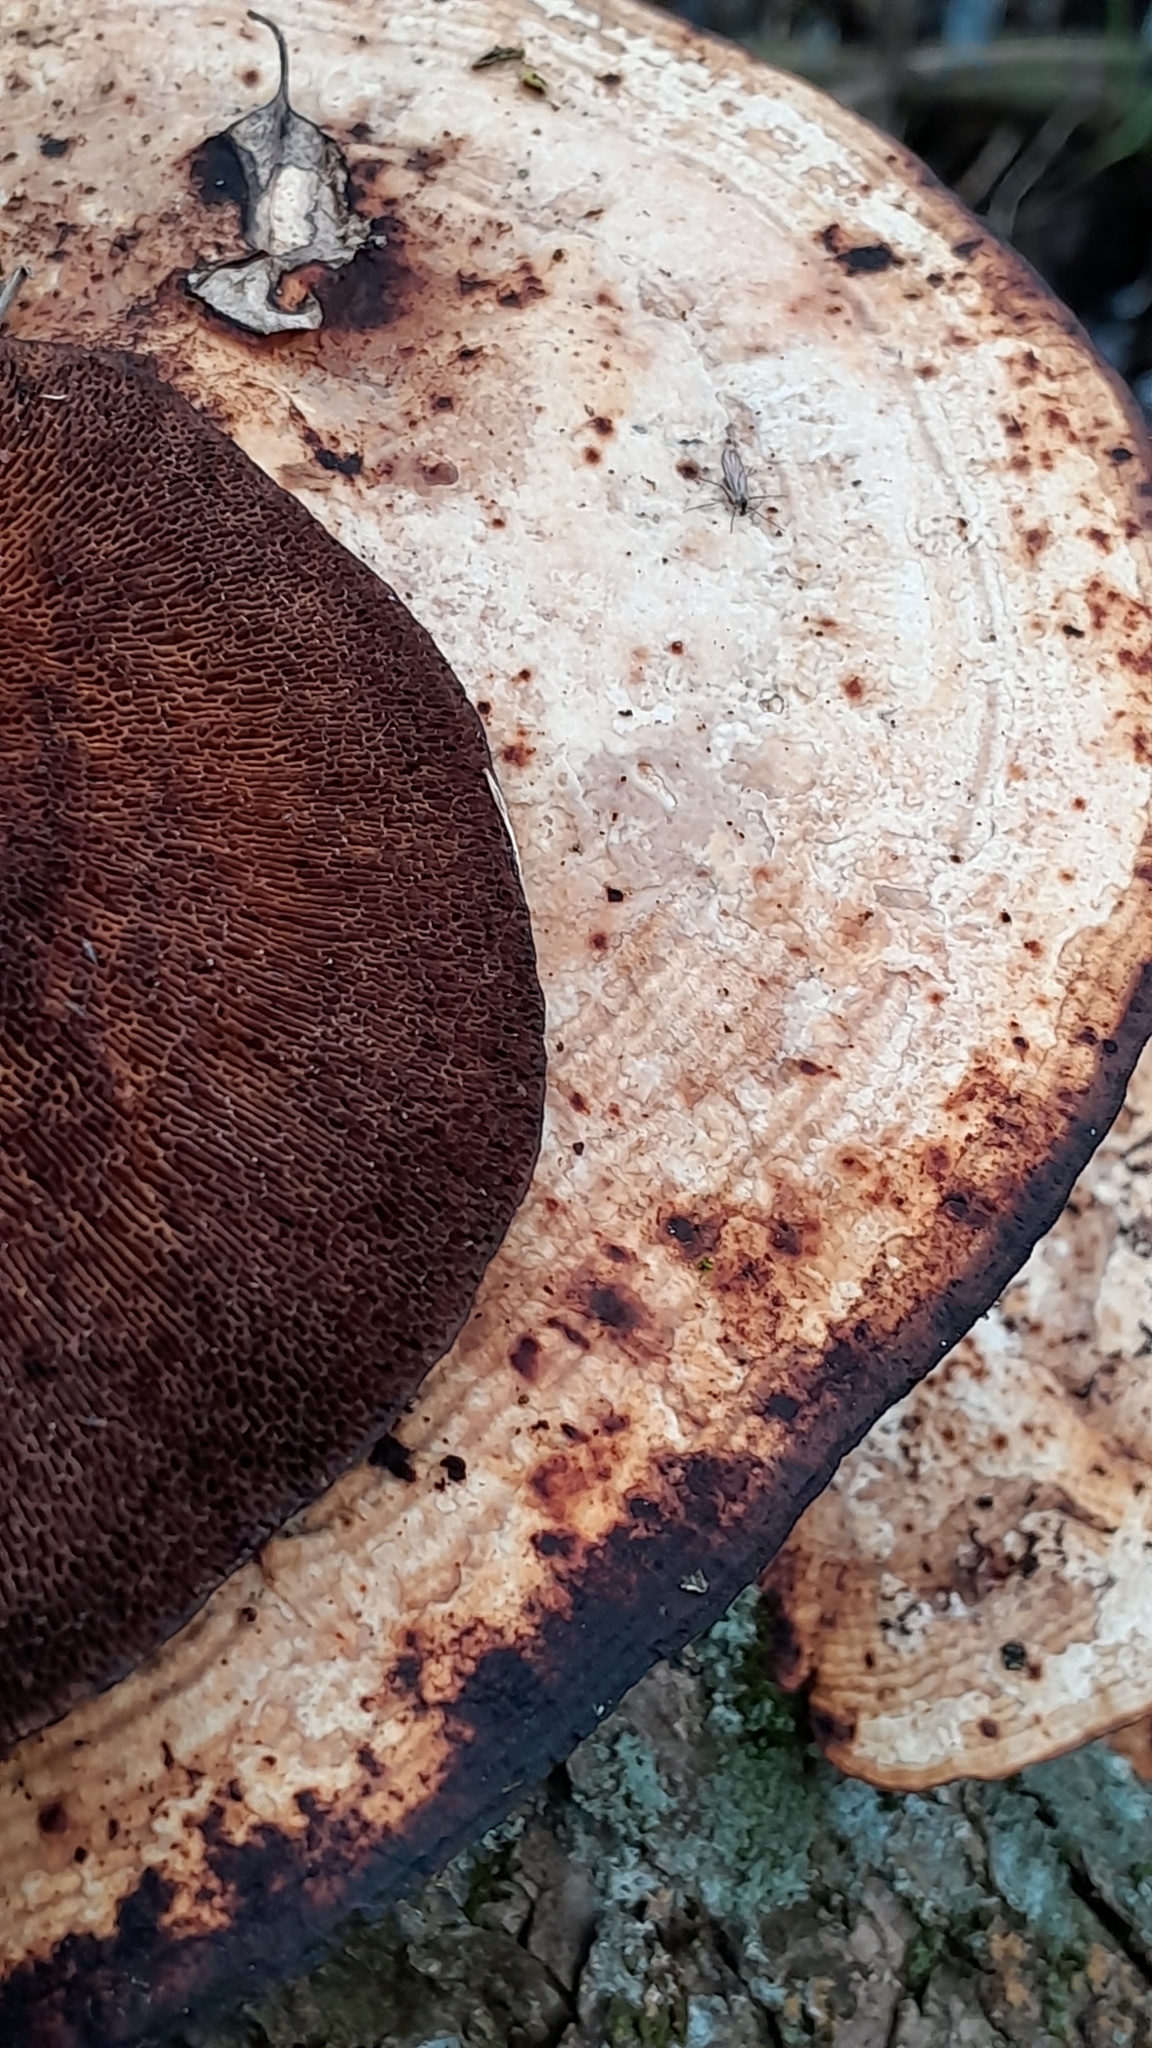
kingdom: Fungi
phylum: Basidiomycota
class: Agaricomycetes
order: Polyporales
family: Polyporaceae
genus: Daedaleopsis
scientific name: Daedaleopsis confragosa
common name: Blushing bracket
